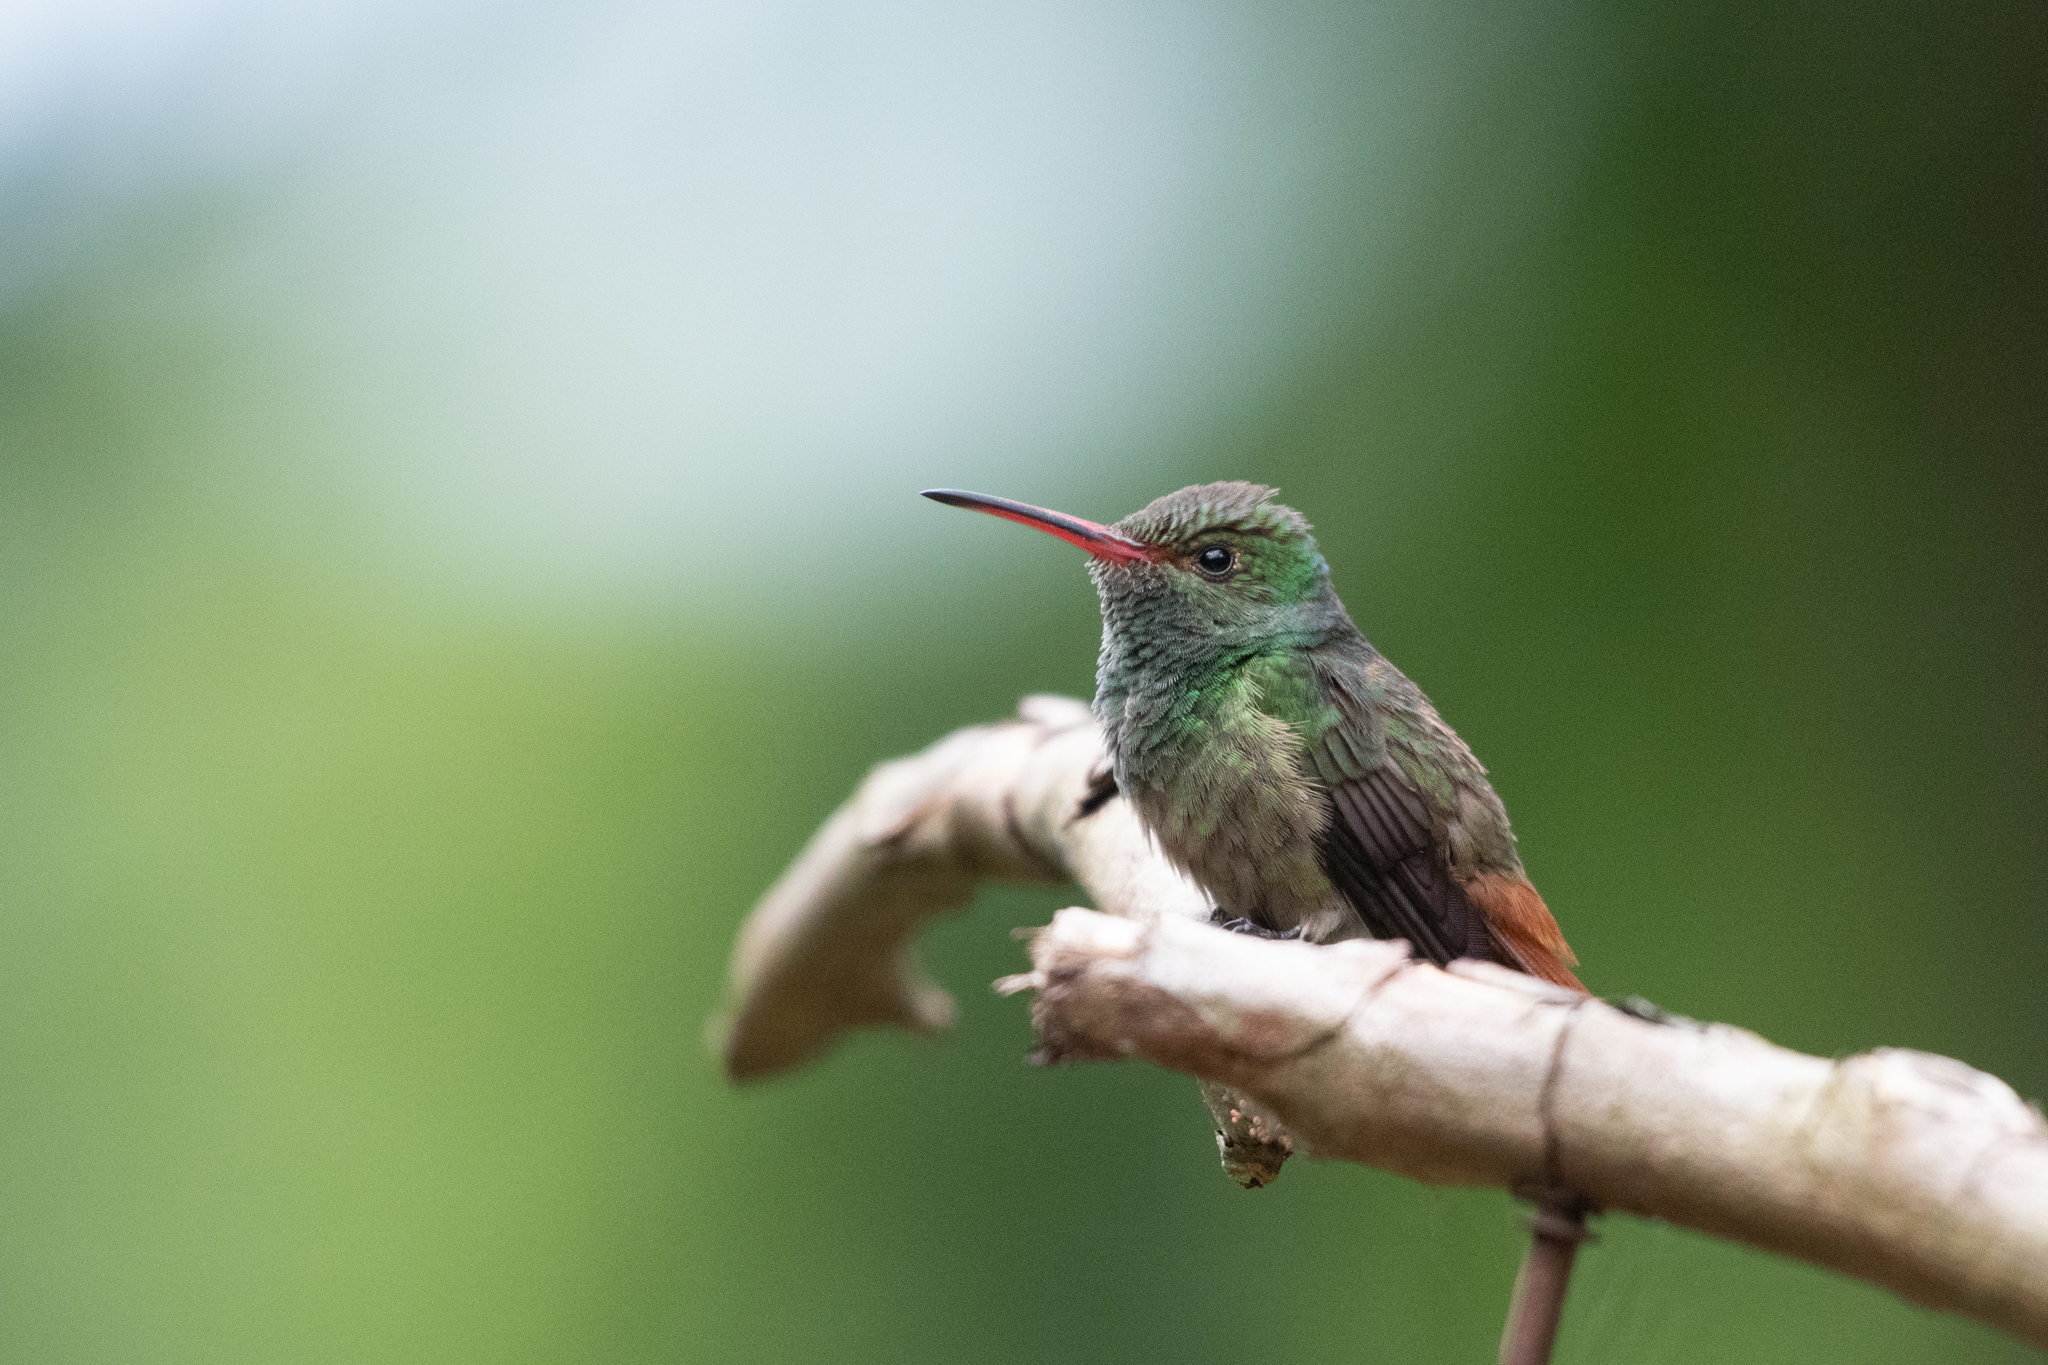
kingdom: Animalia
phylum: Chordata
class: Aves
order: Apodiformes
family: Trochilidae
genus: Amazilia
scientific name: Amazilia tzacatl
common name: Rufous-tailed hummingbird
